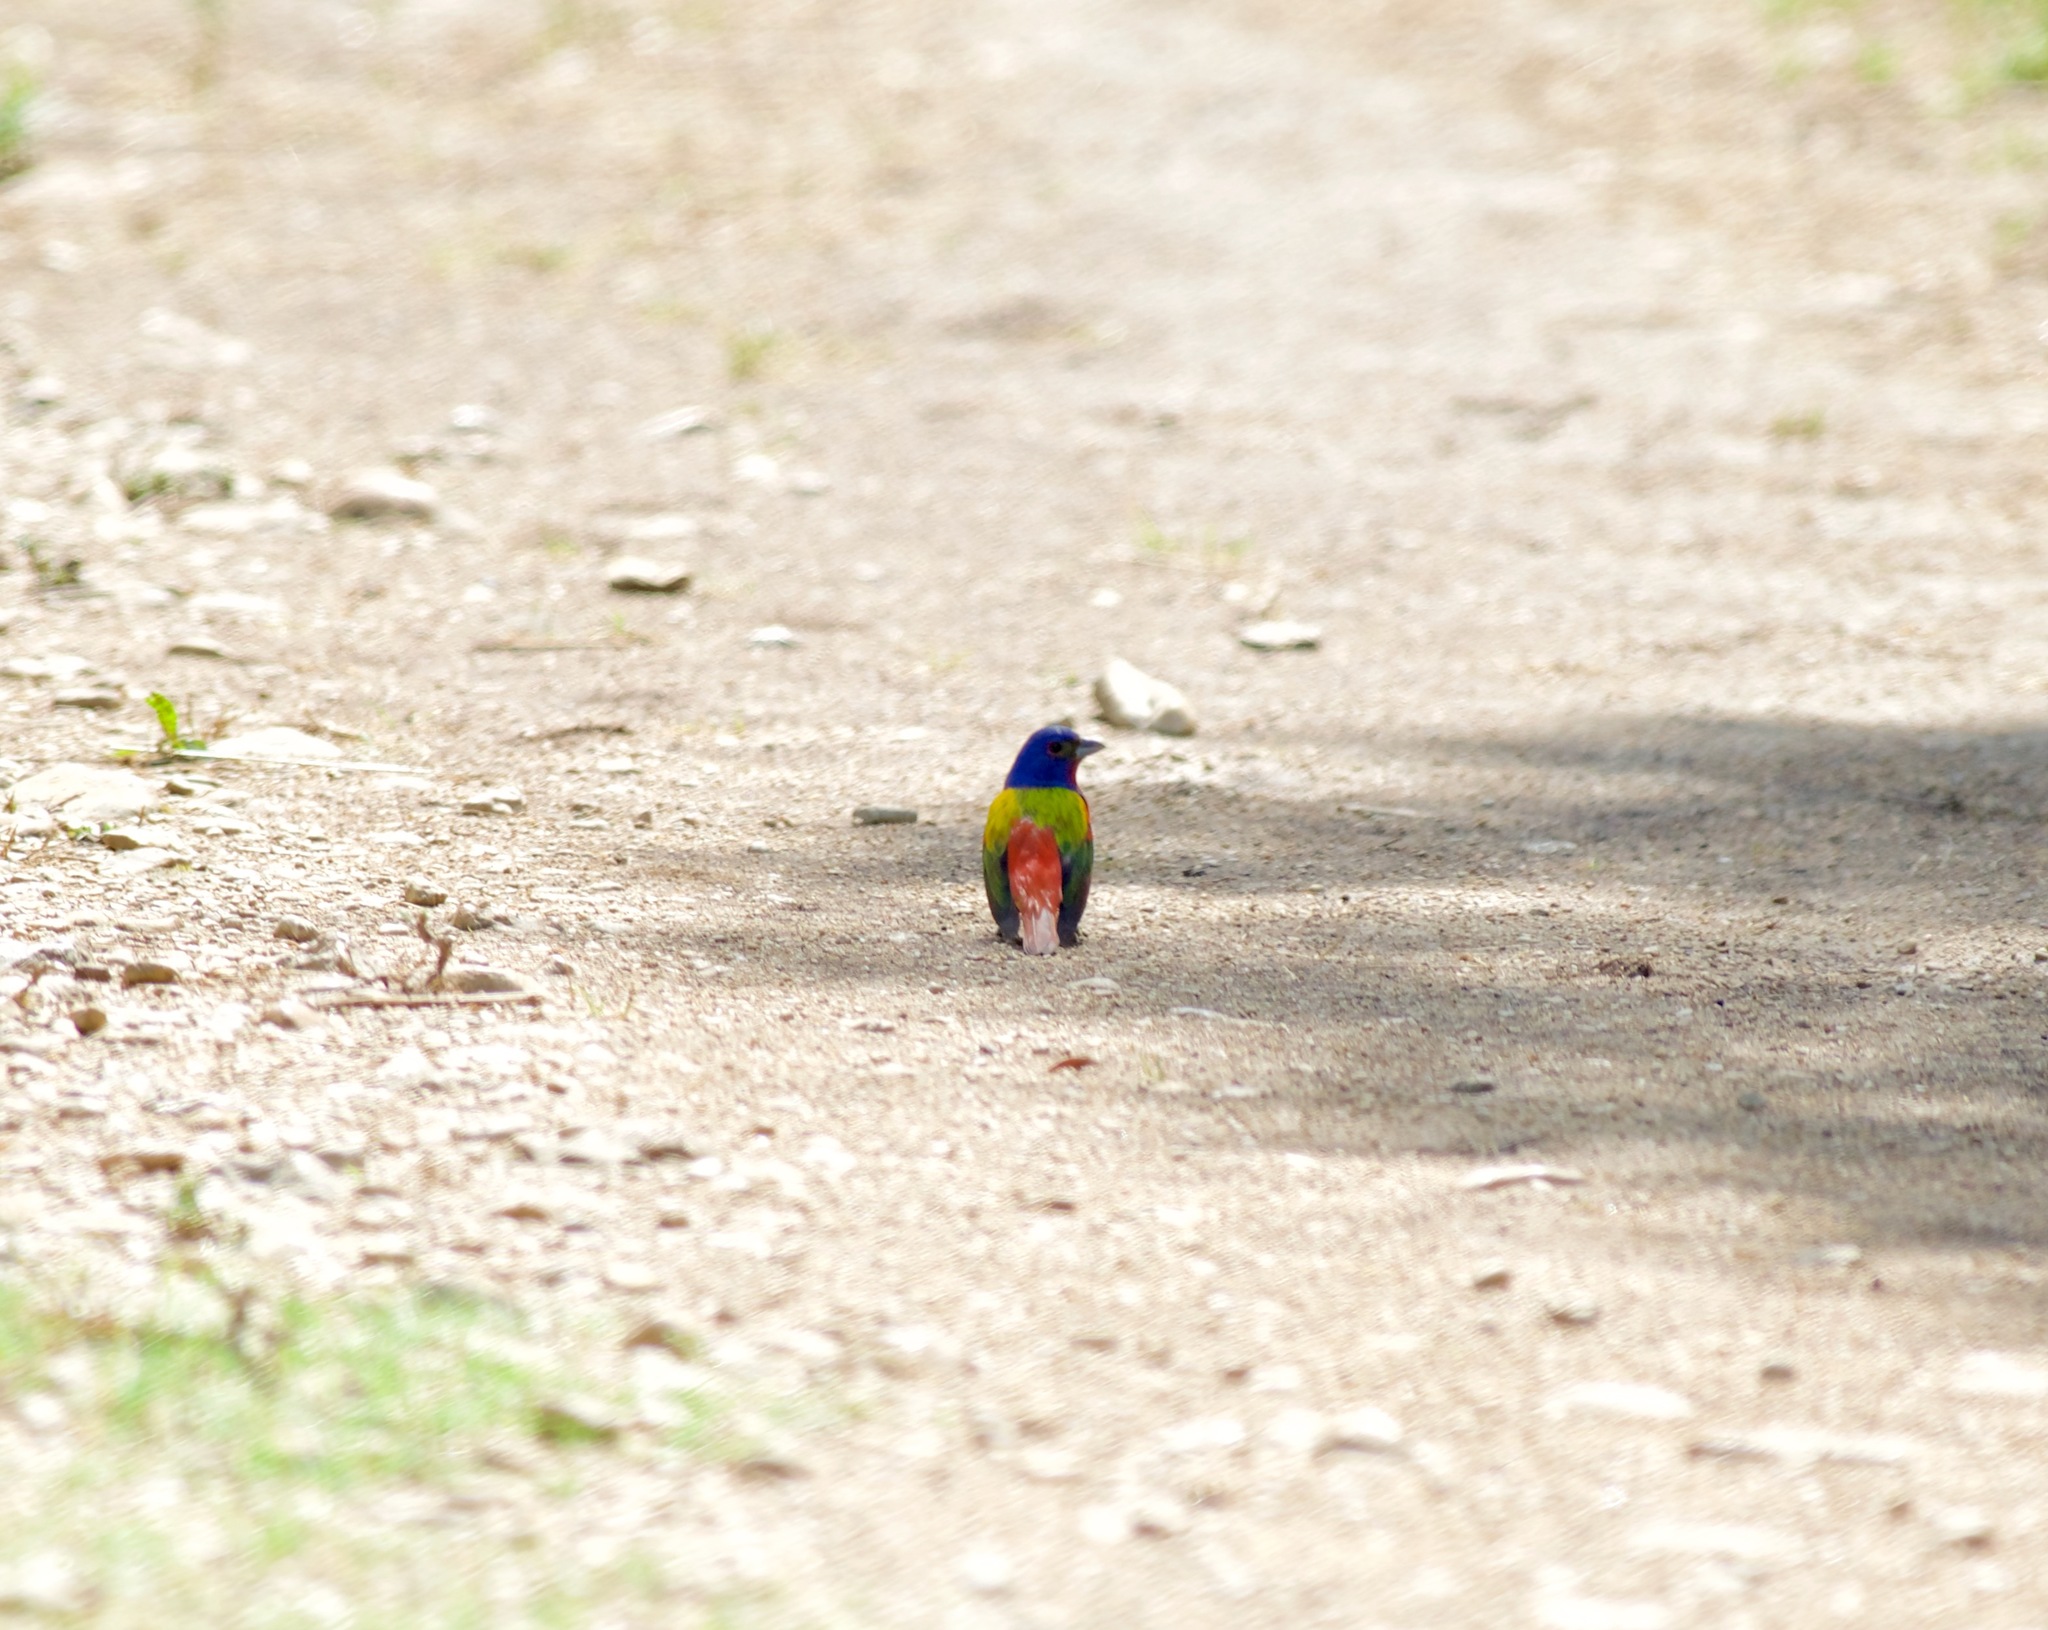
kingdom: Animalia
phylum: Chordata
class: Aves
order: Passeriformes
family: Cardinalidae
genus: Passerina
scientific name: Passerina ciris
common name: Painted bunting
